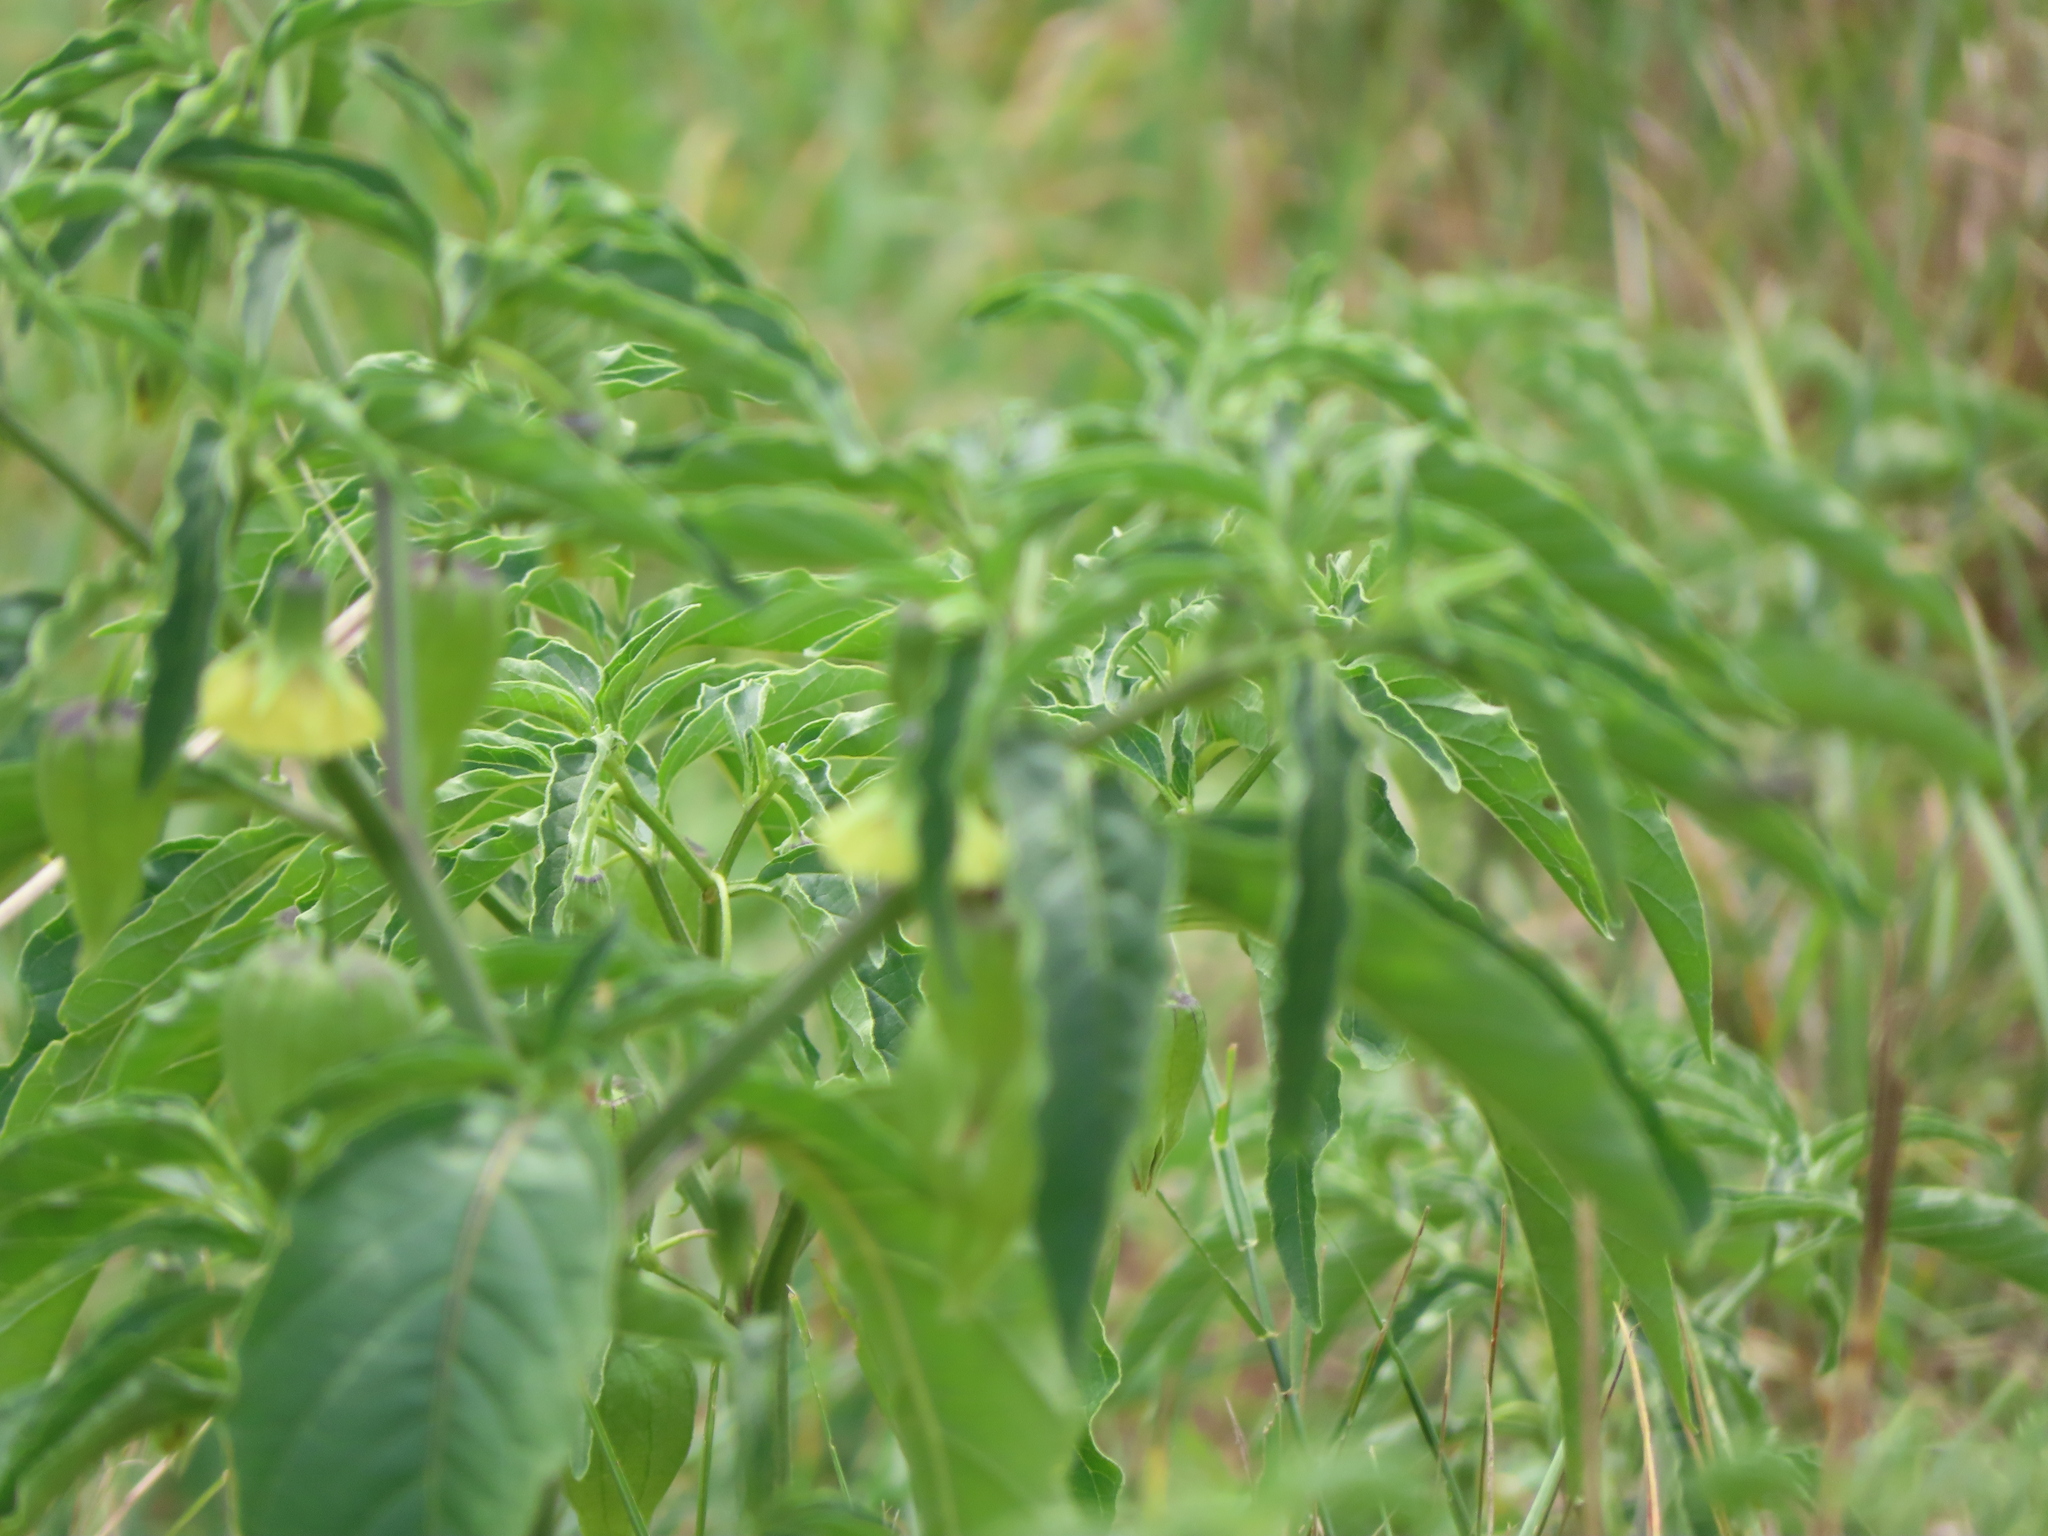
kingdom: Plantae
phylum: Tracheophyta
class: Magnoliopsida
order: Solanales
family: Solanaceae
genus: Physalis
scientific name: Physalis longifolia
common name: Common ground-cherry
